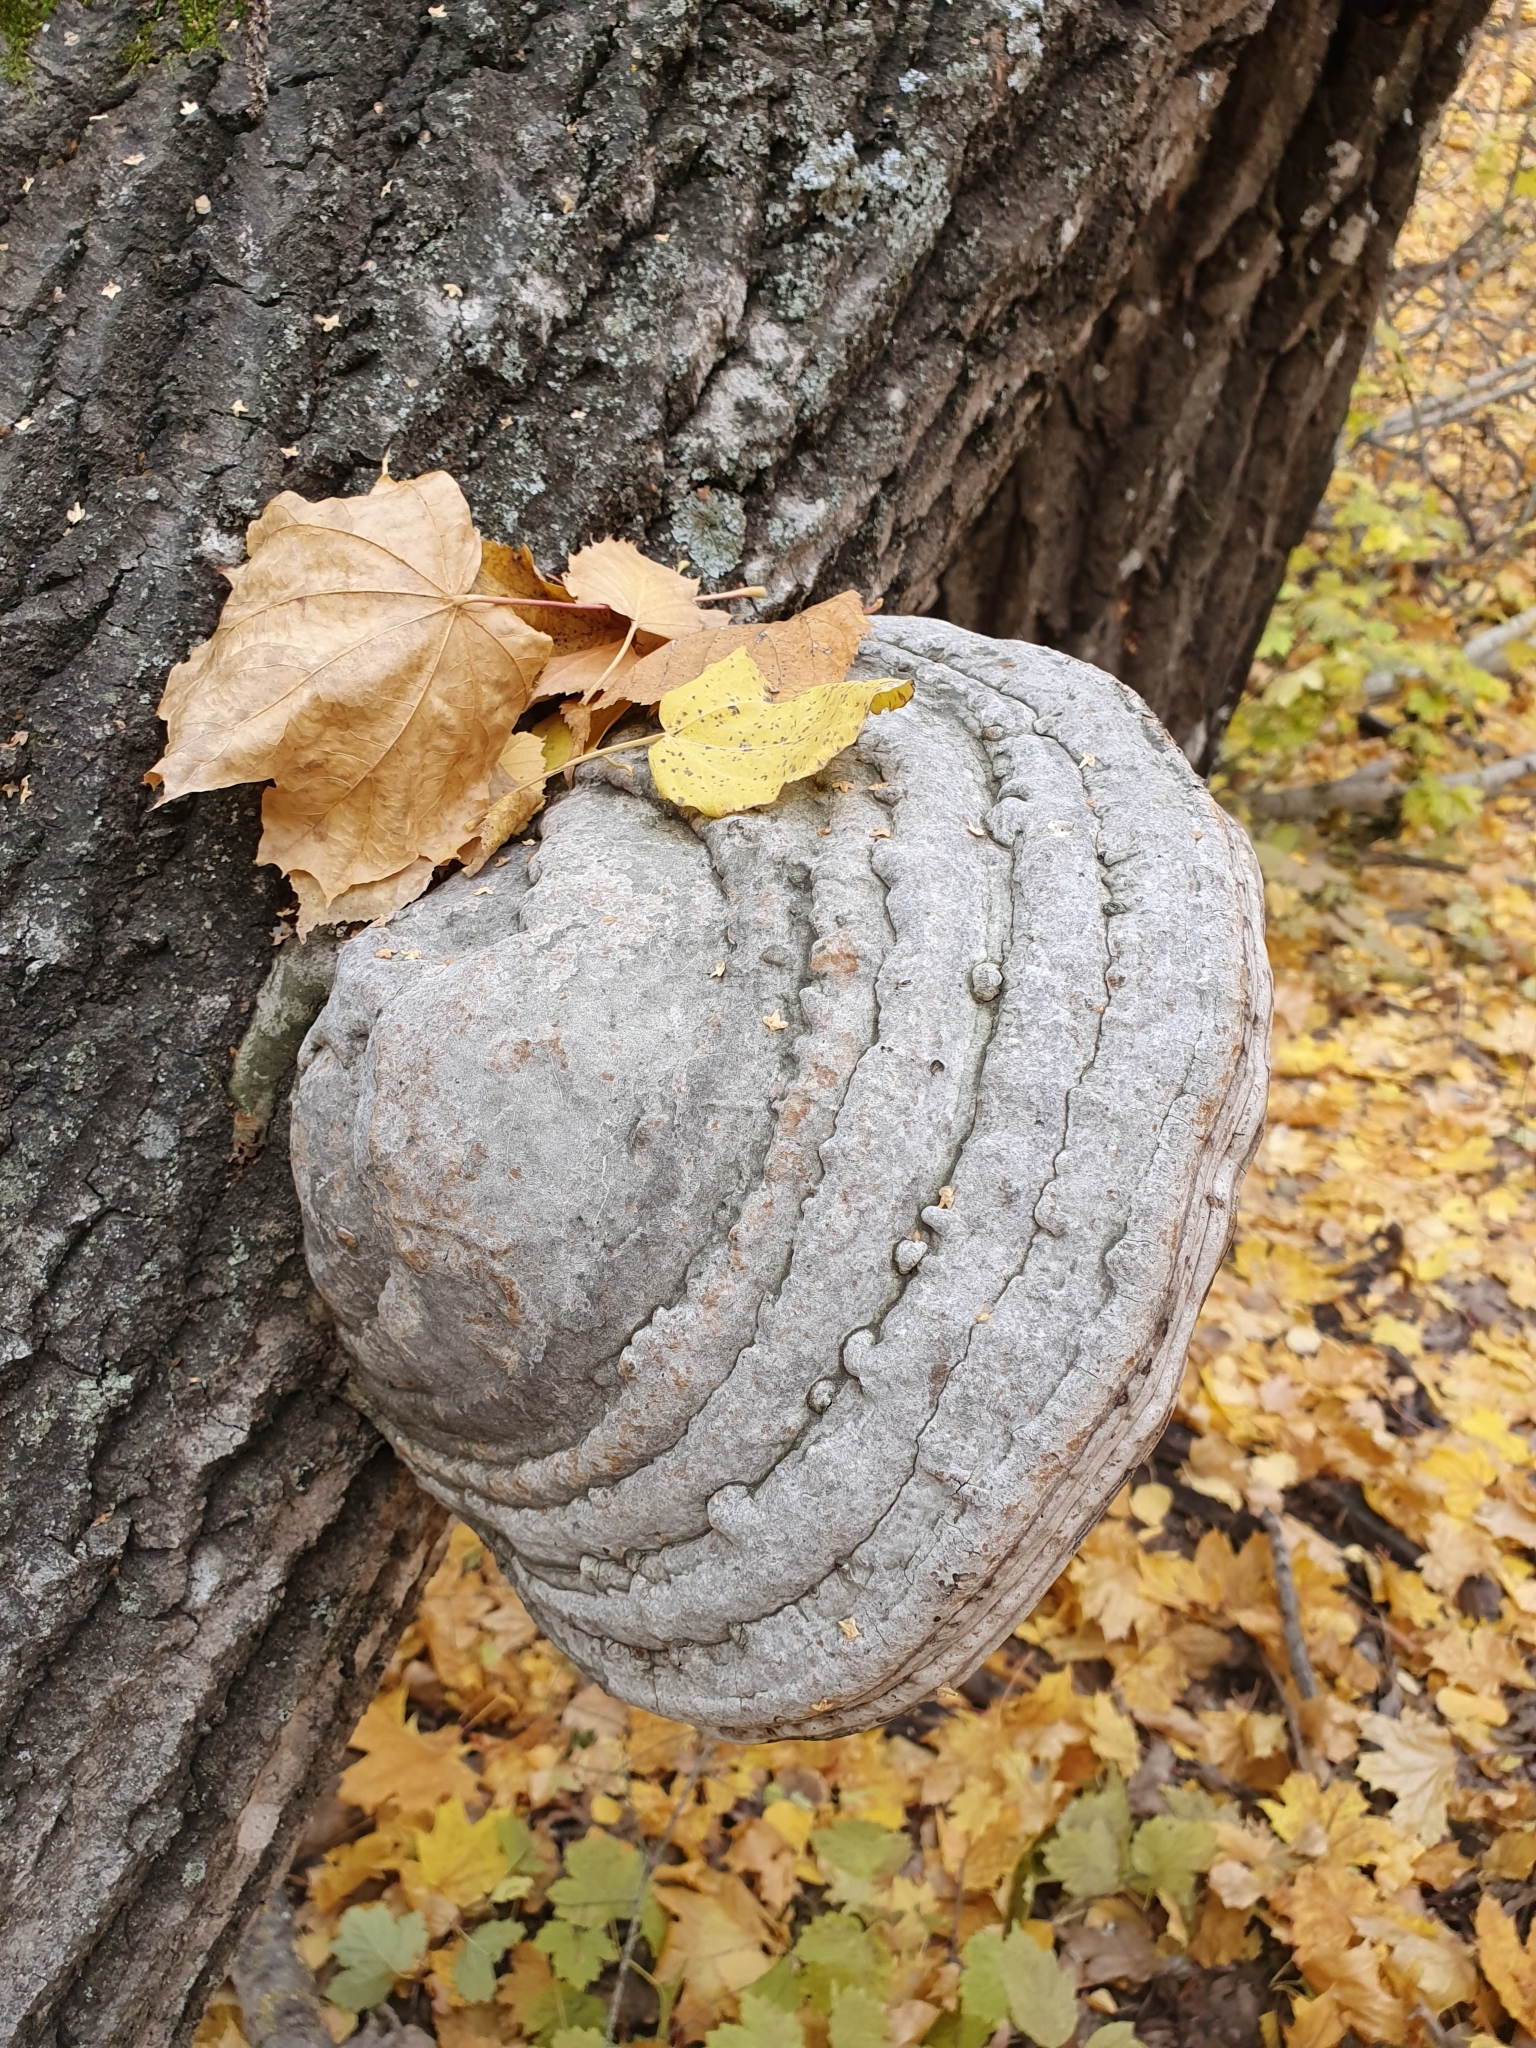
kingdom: Fungi
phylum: Basidiomycota
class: Agaricomycetes
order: Polyporales
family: Polyporaceae
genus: Fomes
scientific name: Fomes fomentarius
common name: Hoof fungus
